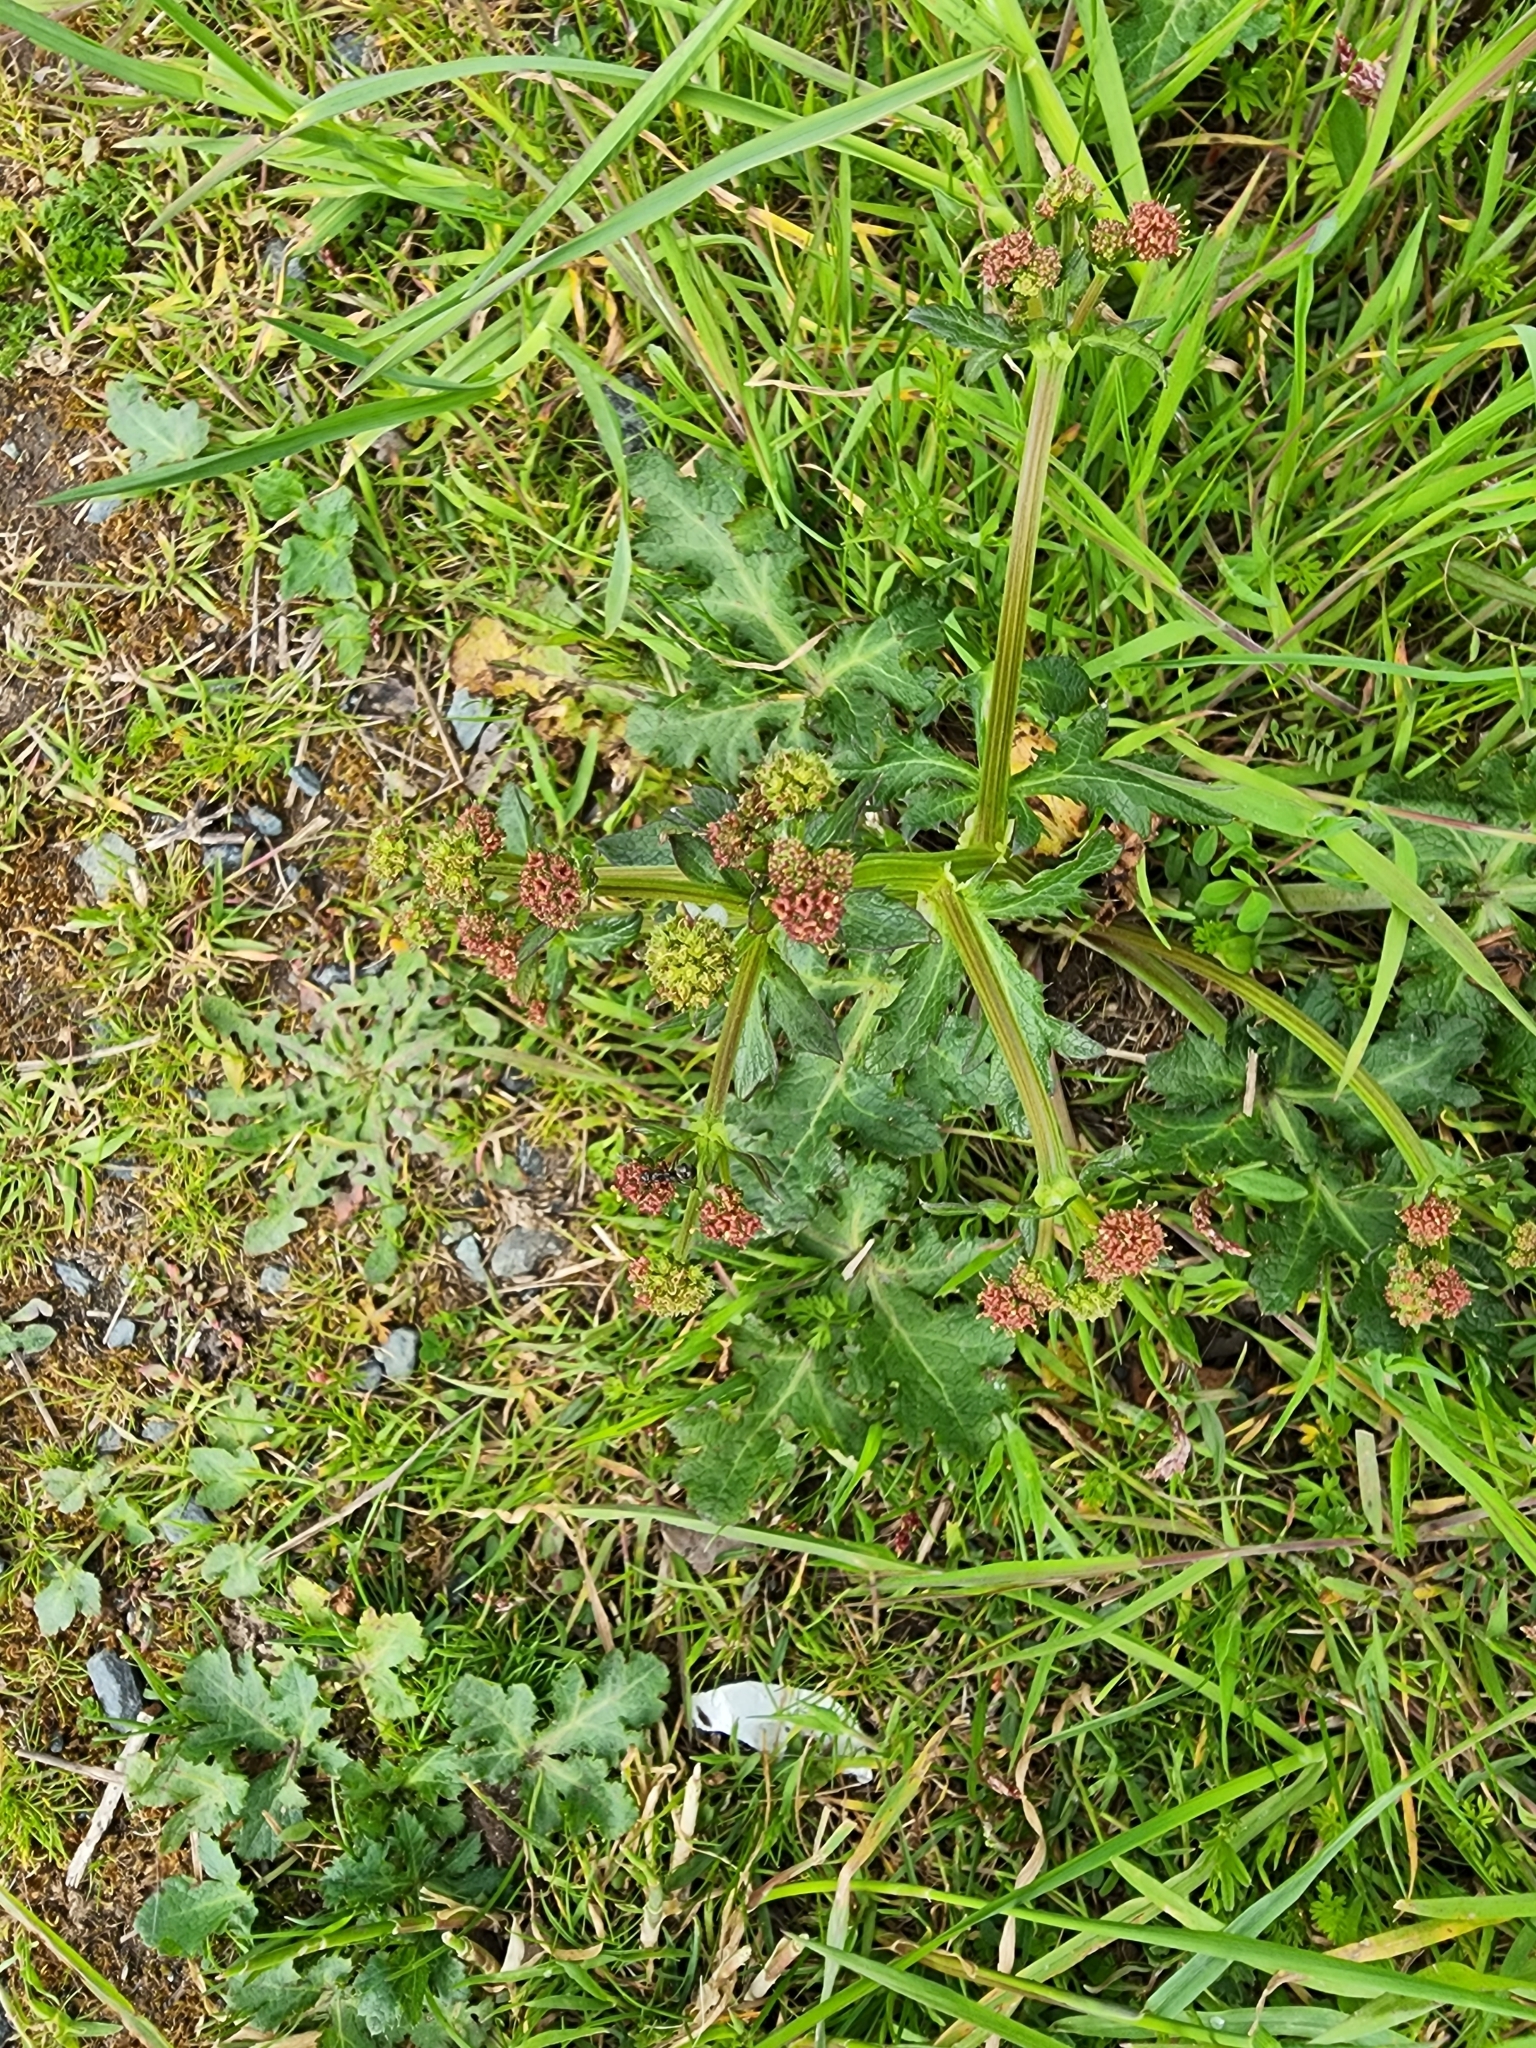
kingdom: Plantae
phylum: Tracheophyta
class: Magnoliopsida
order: Apiales
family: Apiaceae
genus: Sanicula
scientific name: Sanicula crassicaulis
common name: Western snakeroot
